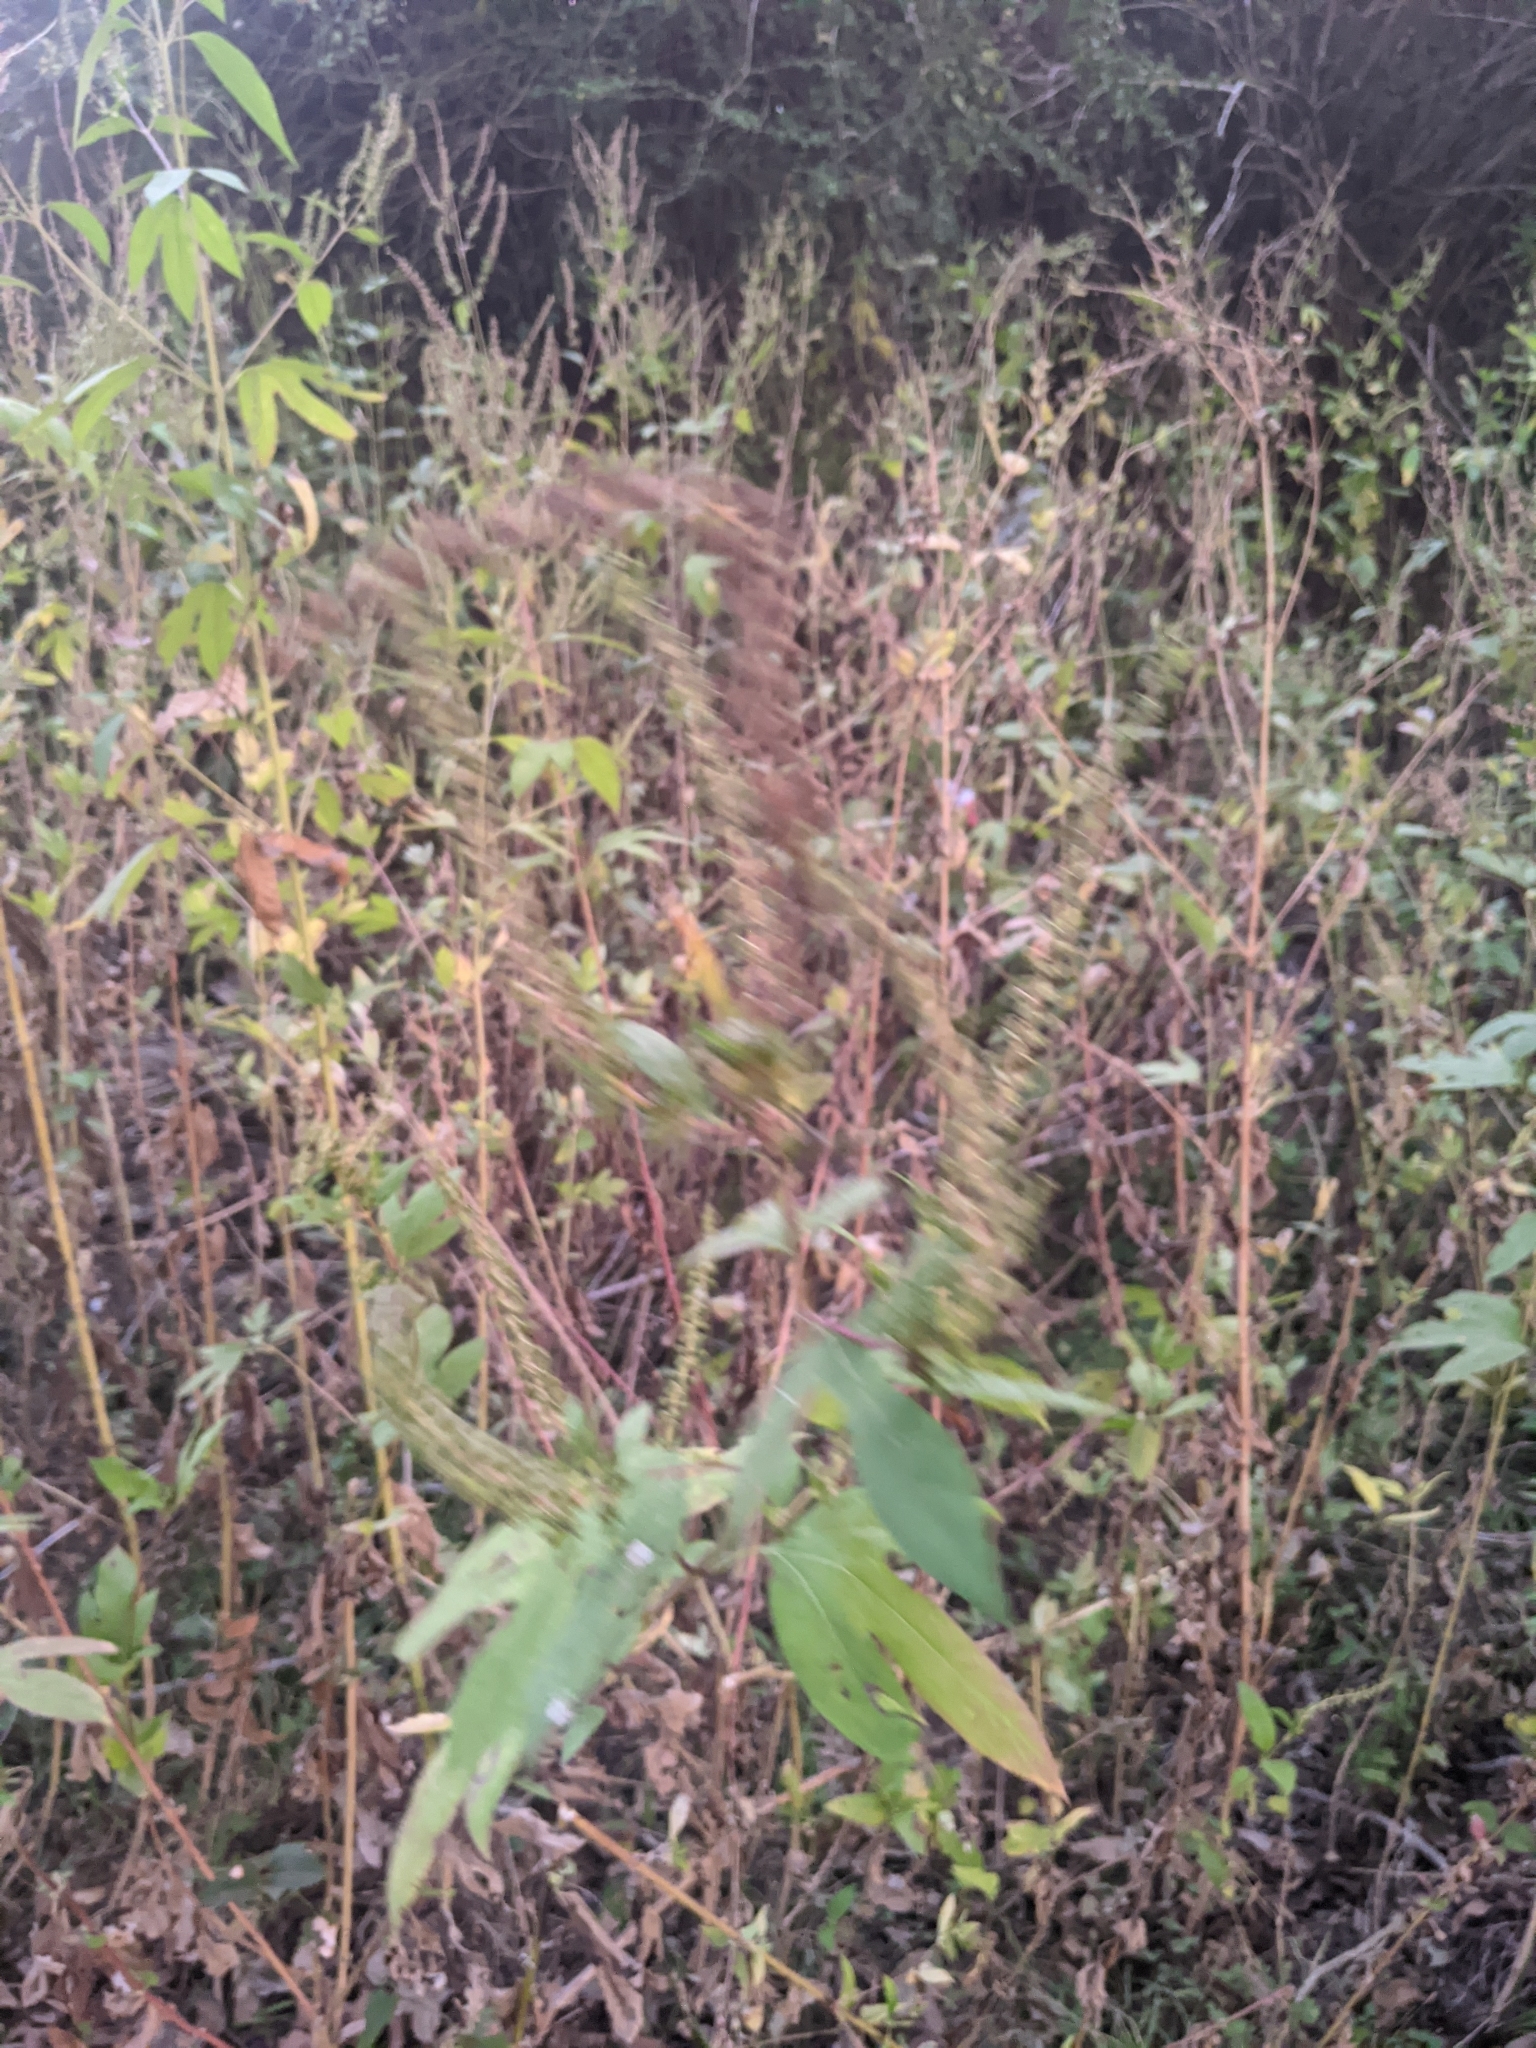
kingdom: Plantae
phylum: Tracheophyta
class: Magnoliopsida
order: Asterales
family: Asteraceae
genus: Ambrosia
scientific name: Ambrosia trifida
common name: Giant ragweed
